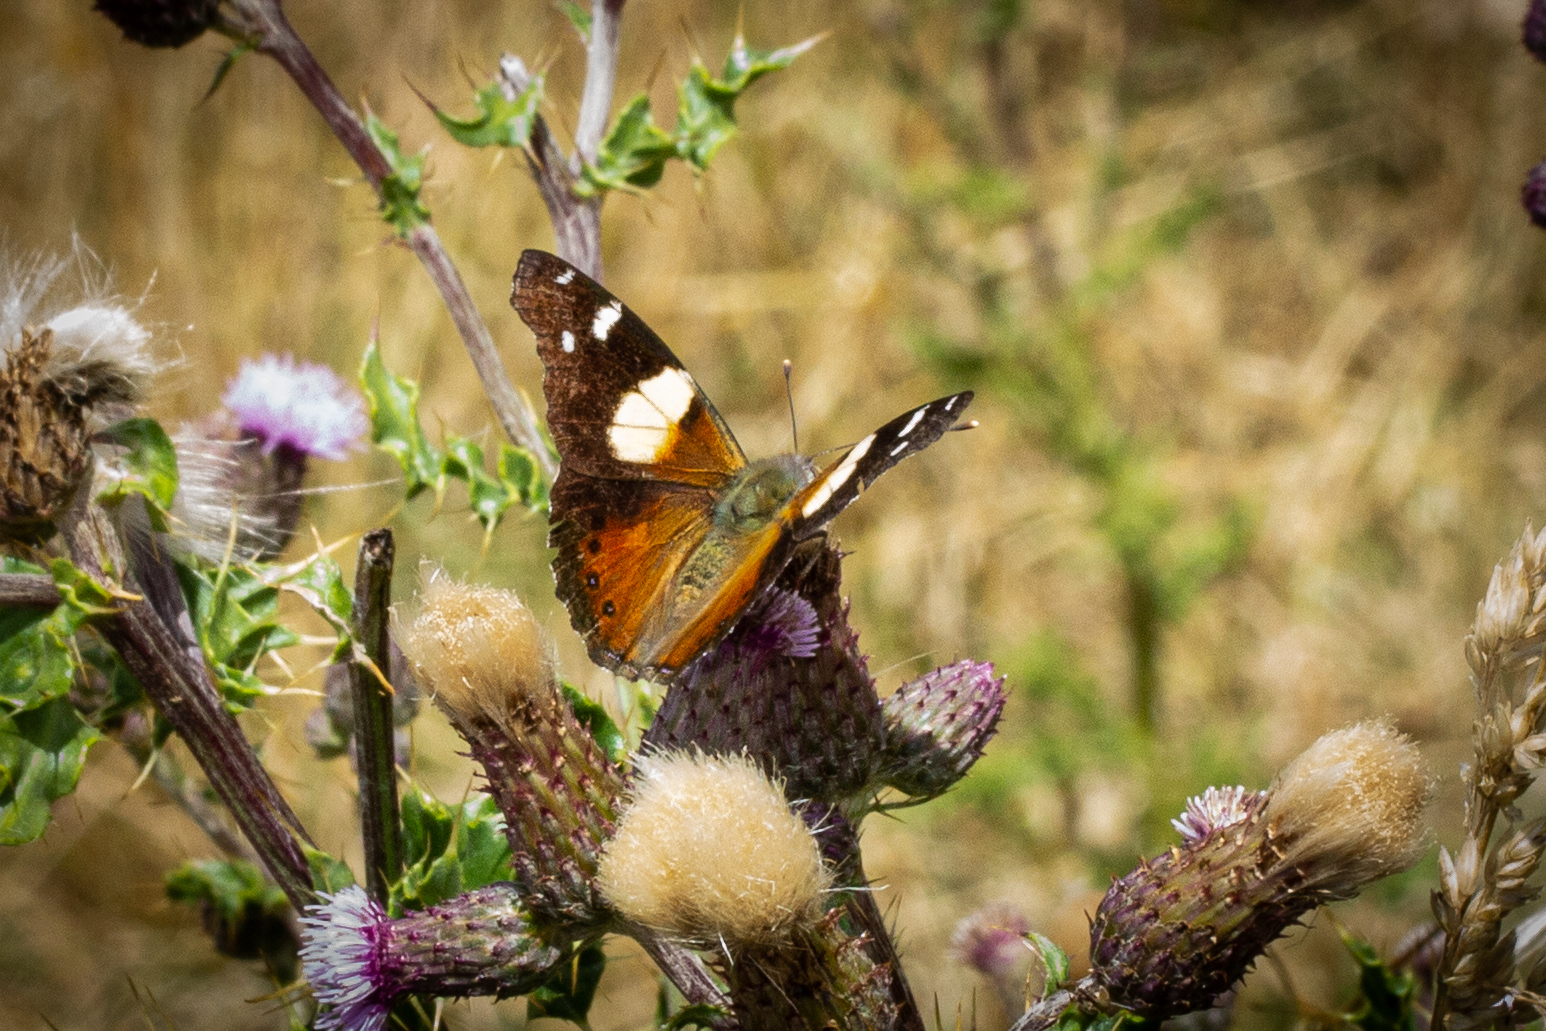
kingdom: Animalia
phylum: Arthropoda
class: Insecta
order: Lepidoptera
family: Nymphalidae
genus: Vanessa
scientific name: Vanessa itea
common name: Yellow admiral
